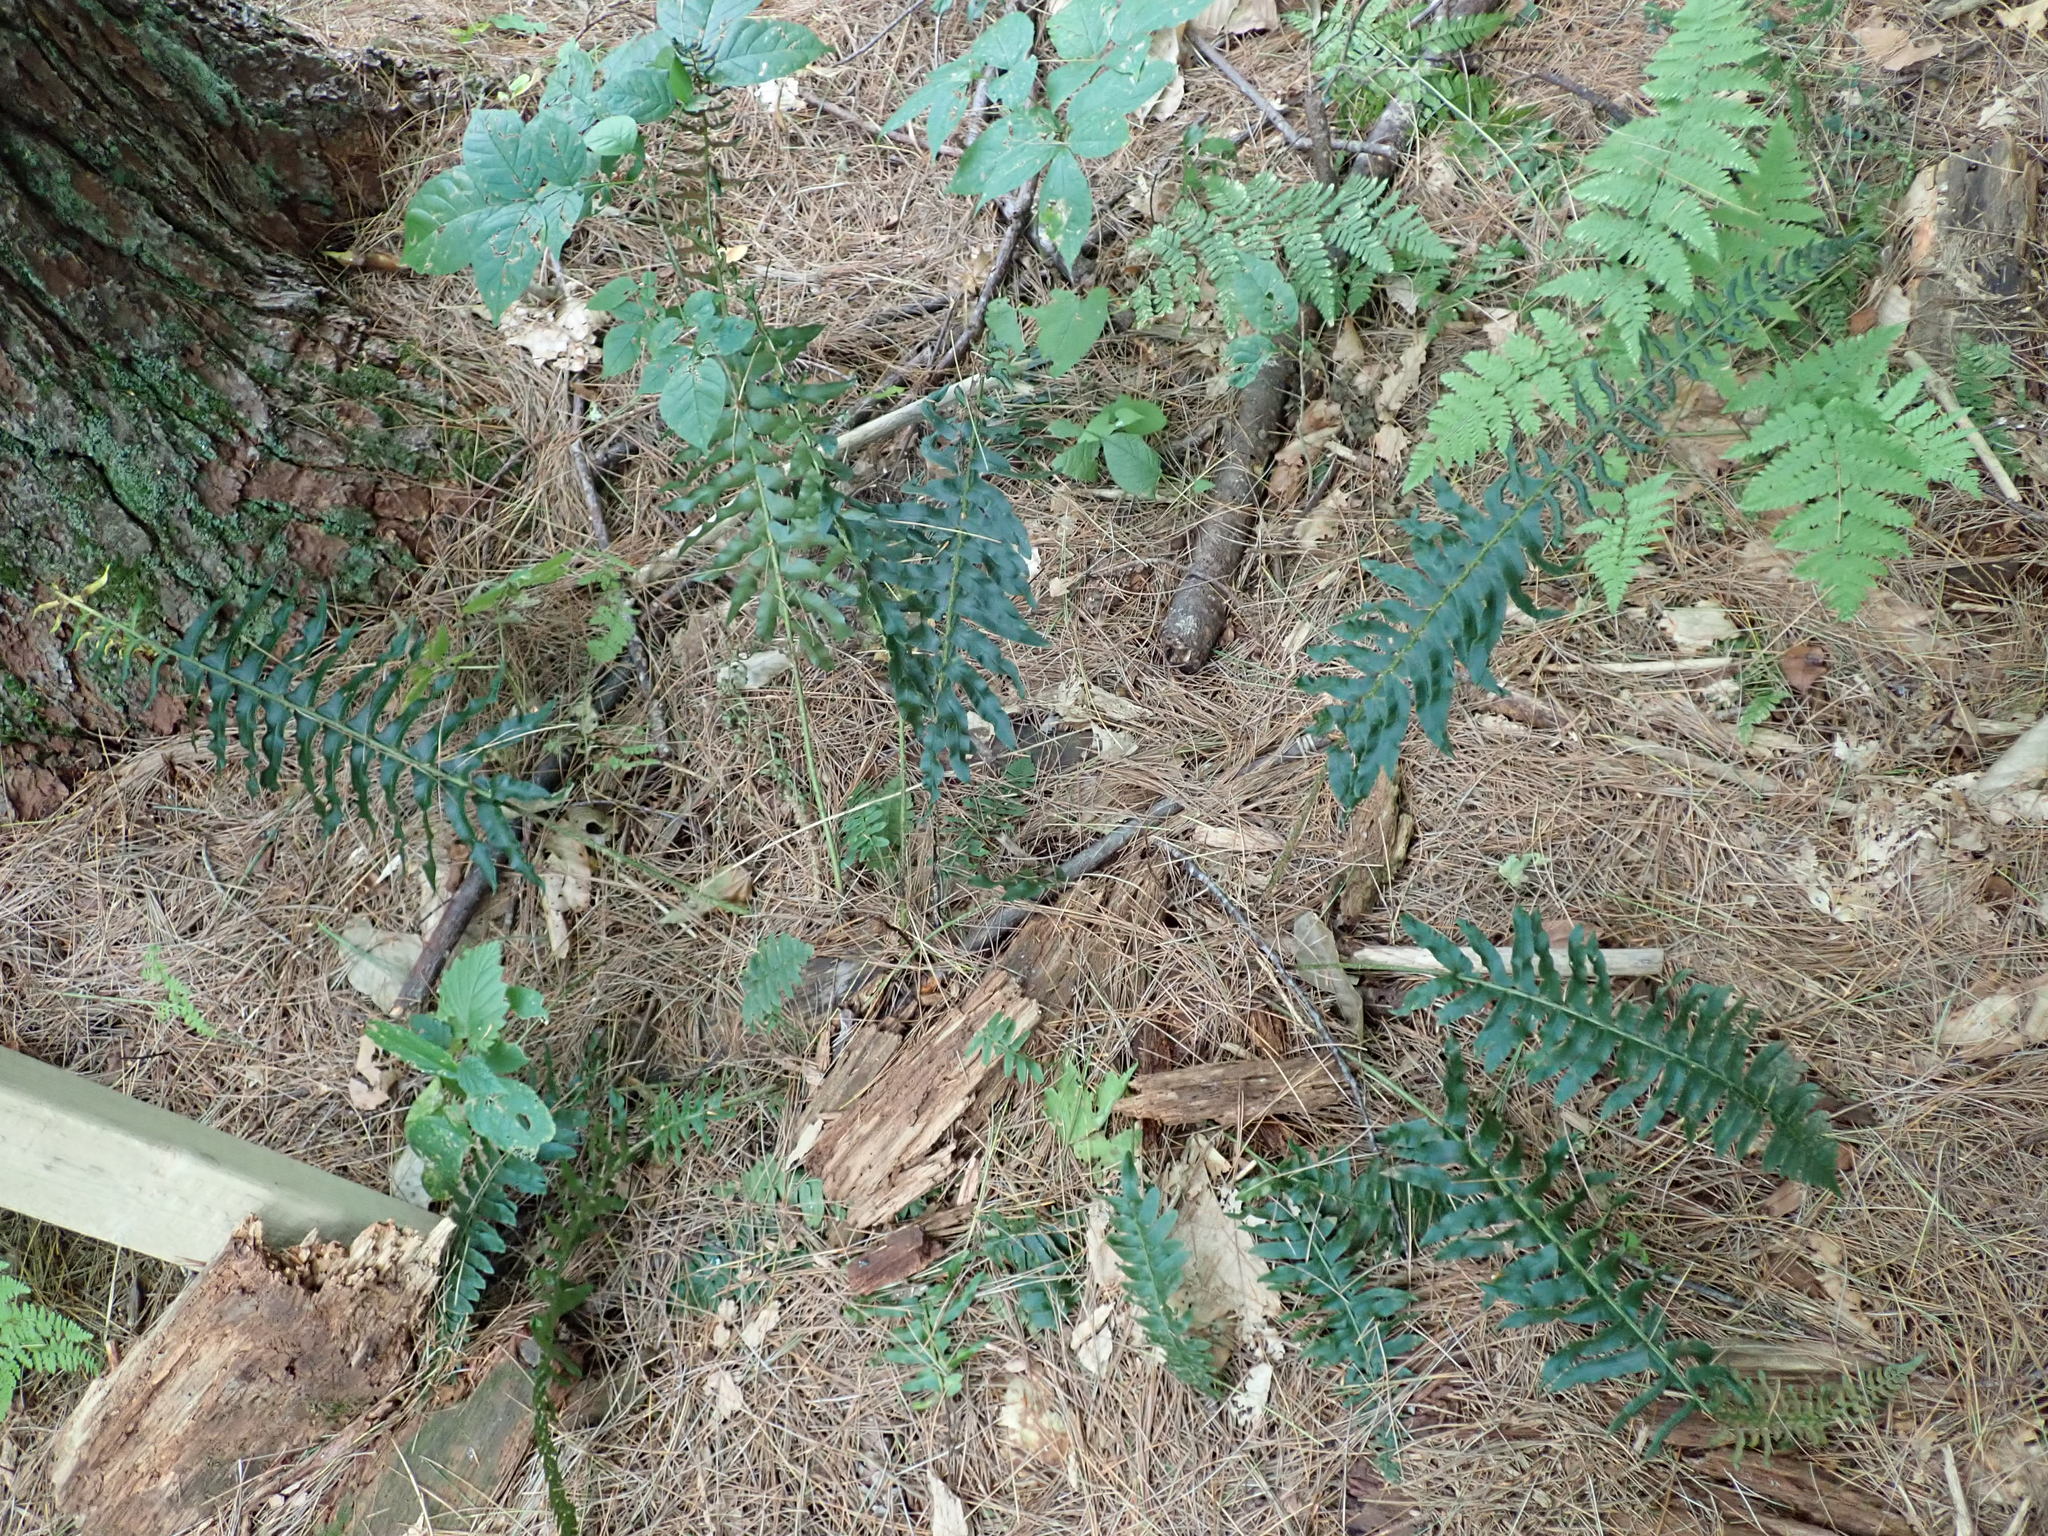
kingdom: Plantae
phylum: Tracheophyta
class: Polypodiopsida
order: Polypodiales
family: Dryopteridaceae
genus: Polystichum
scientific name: Polystichum acrostichoides
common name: Christmas fern
